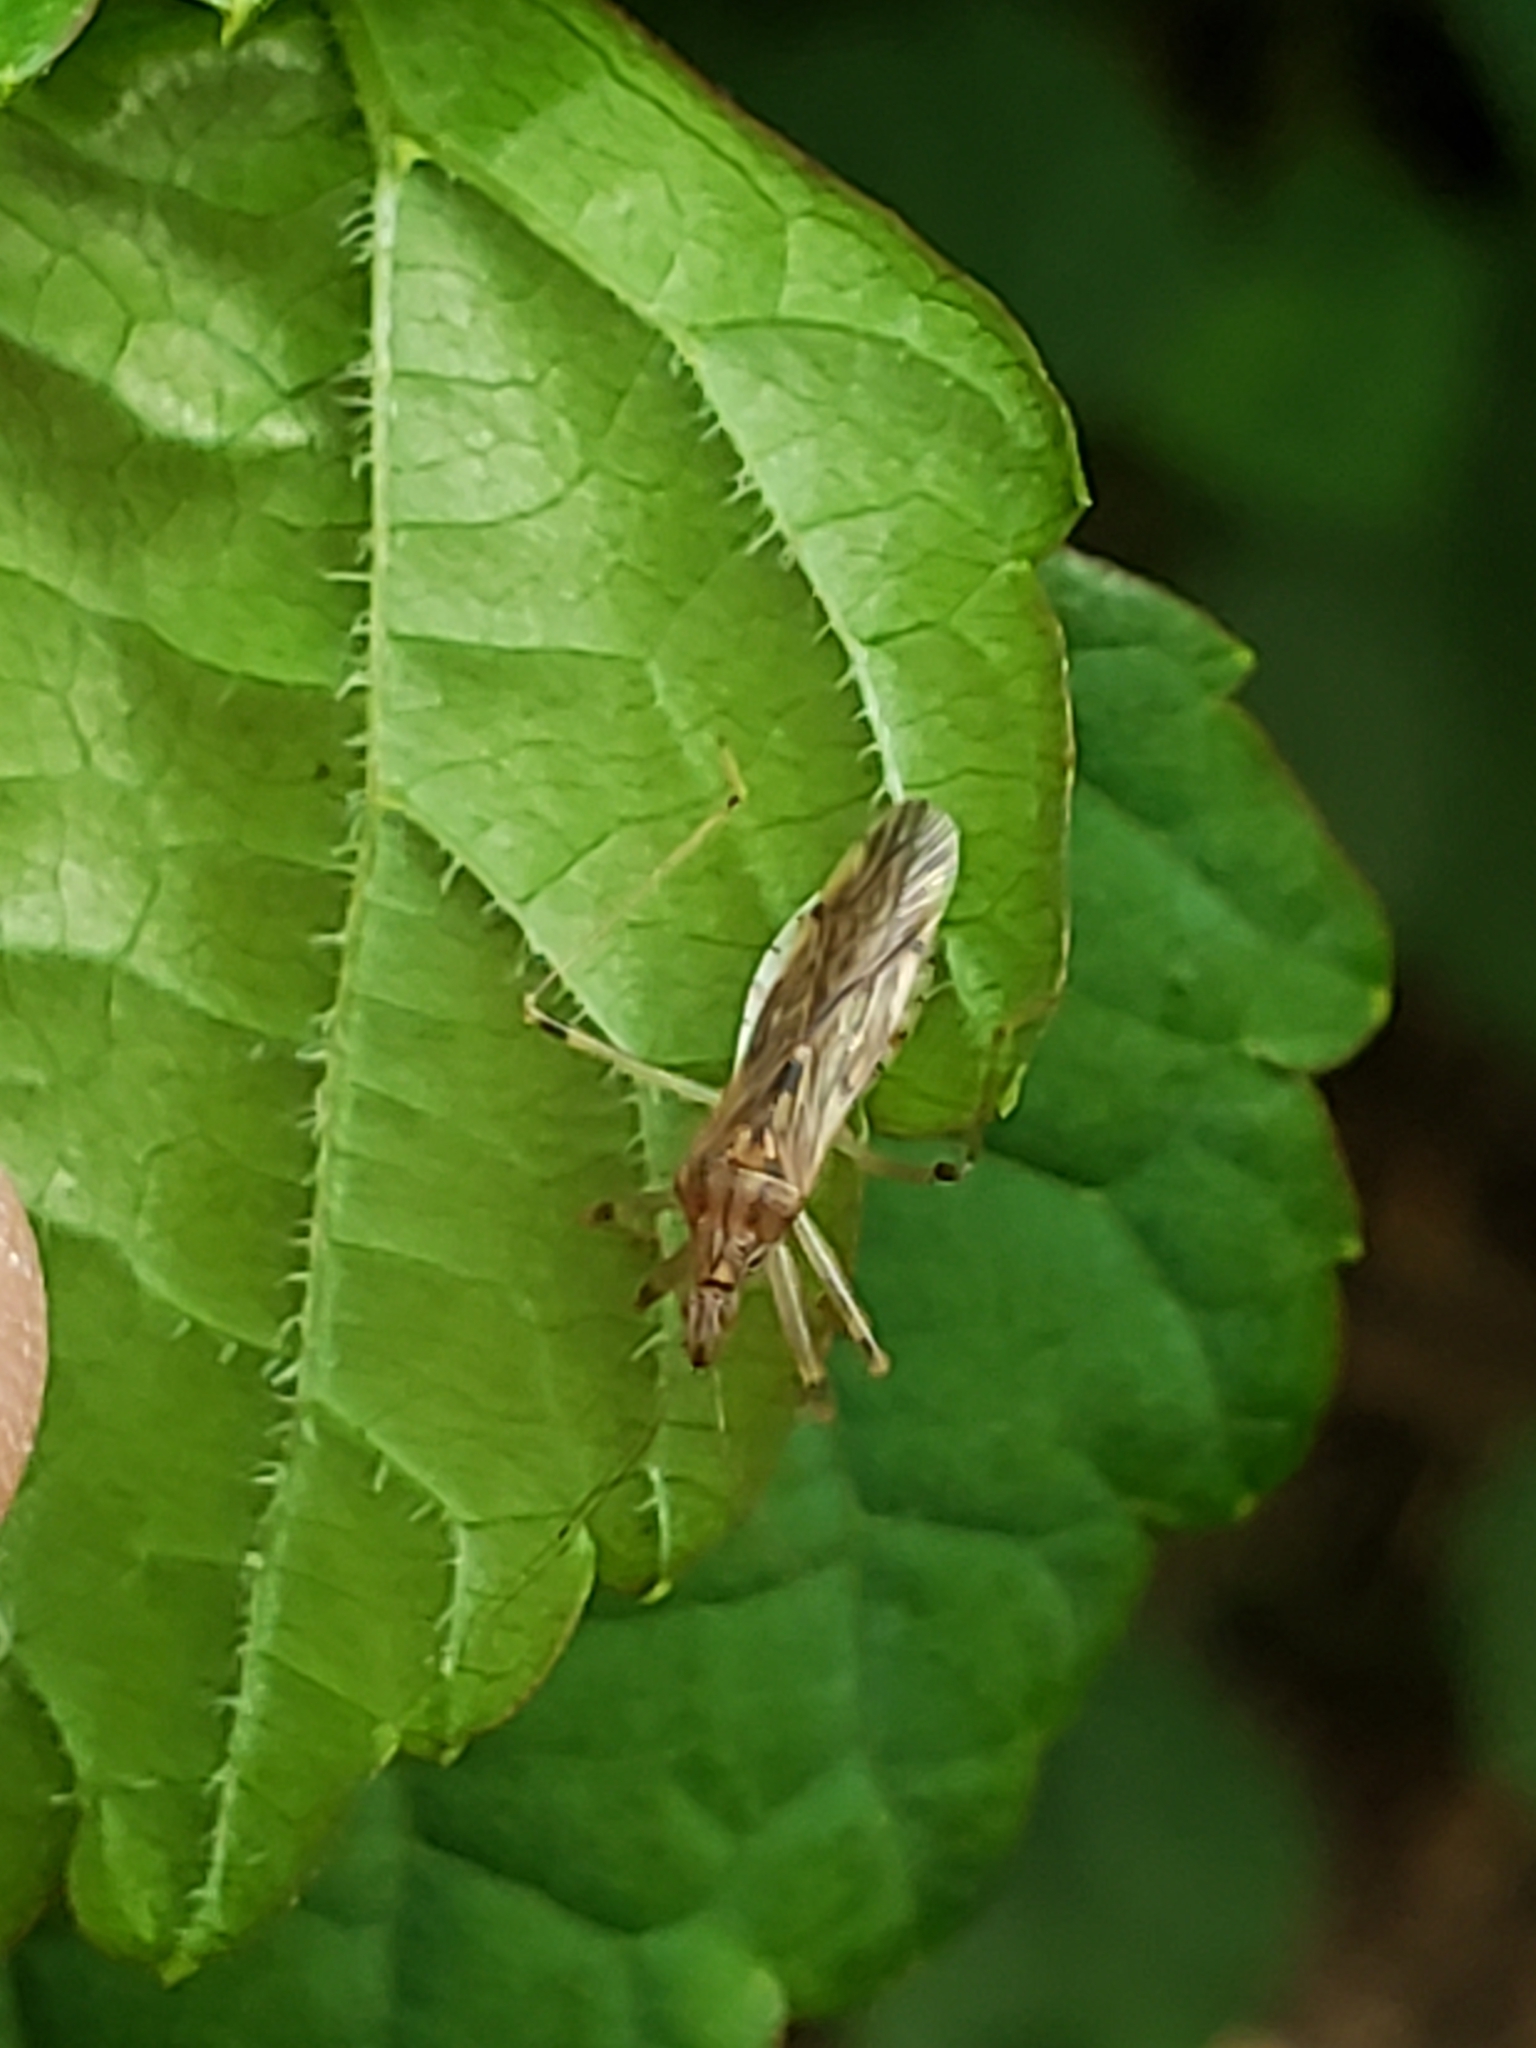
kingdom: Animalia
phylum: Arthropoda
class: Insecta
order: Hemiptera
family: Nabidae
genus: Lasiomerus
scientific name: Lasiomerus annulatus
